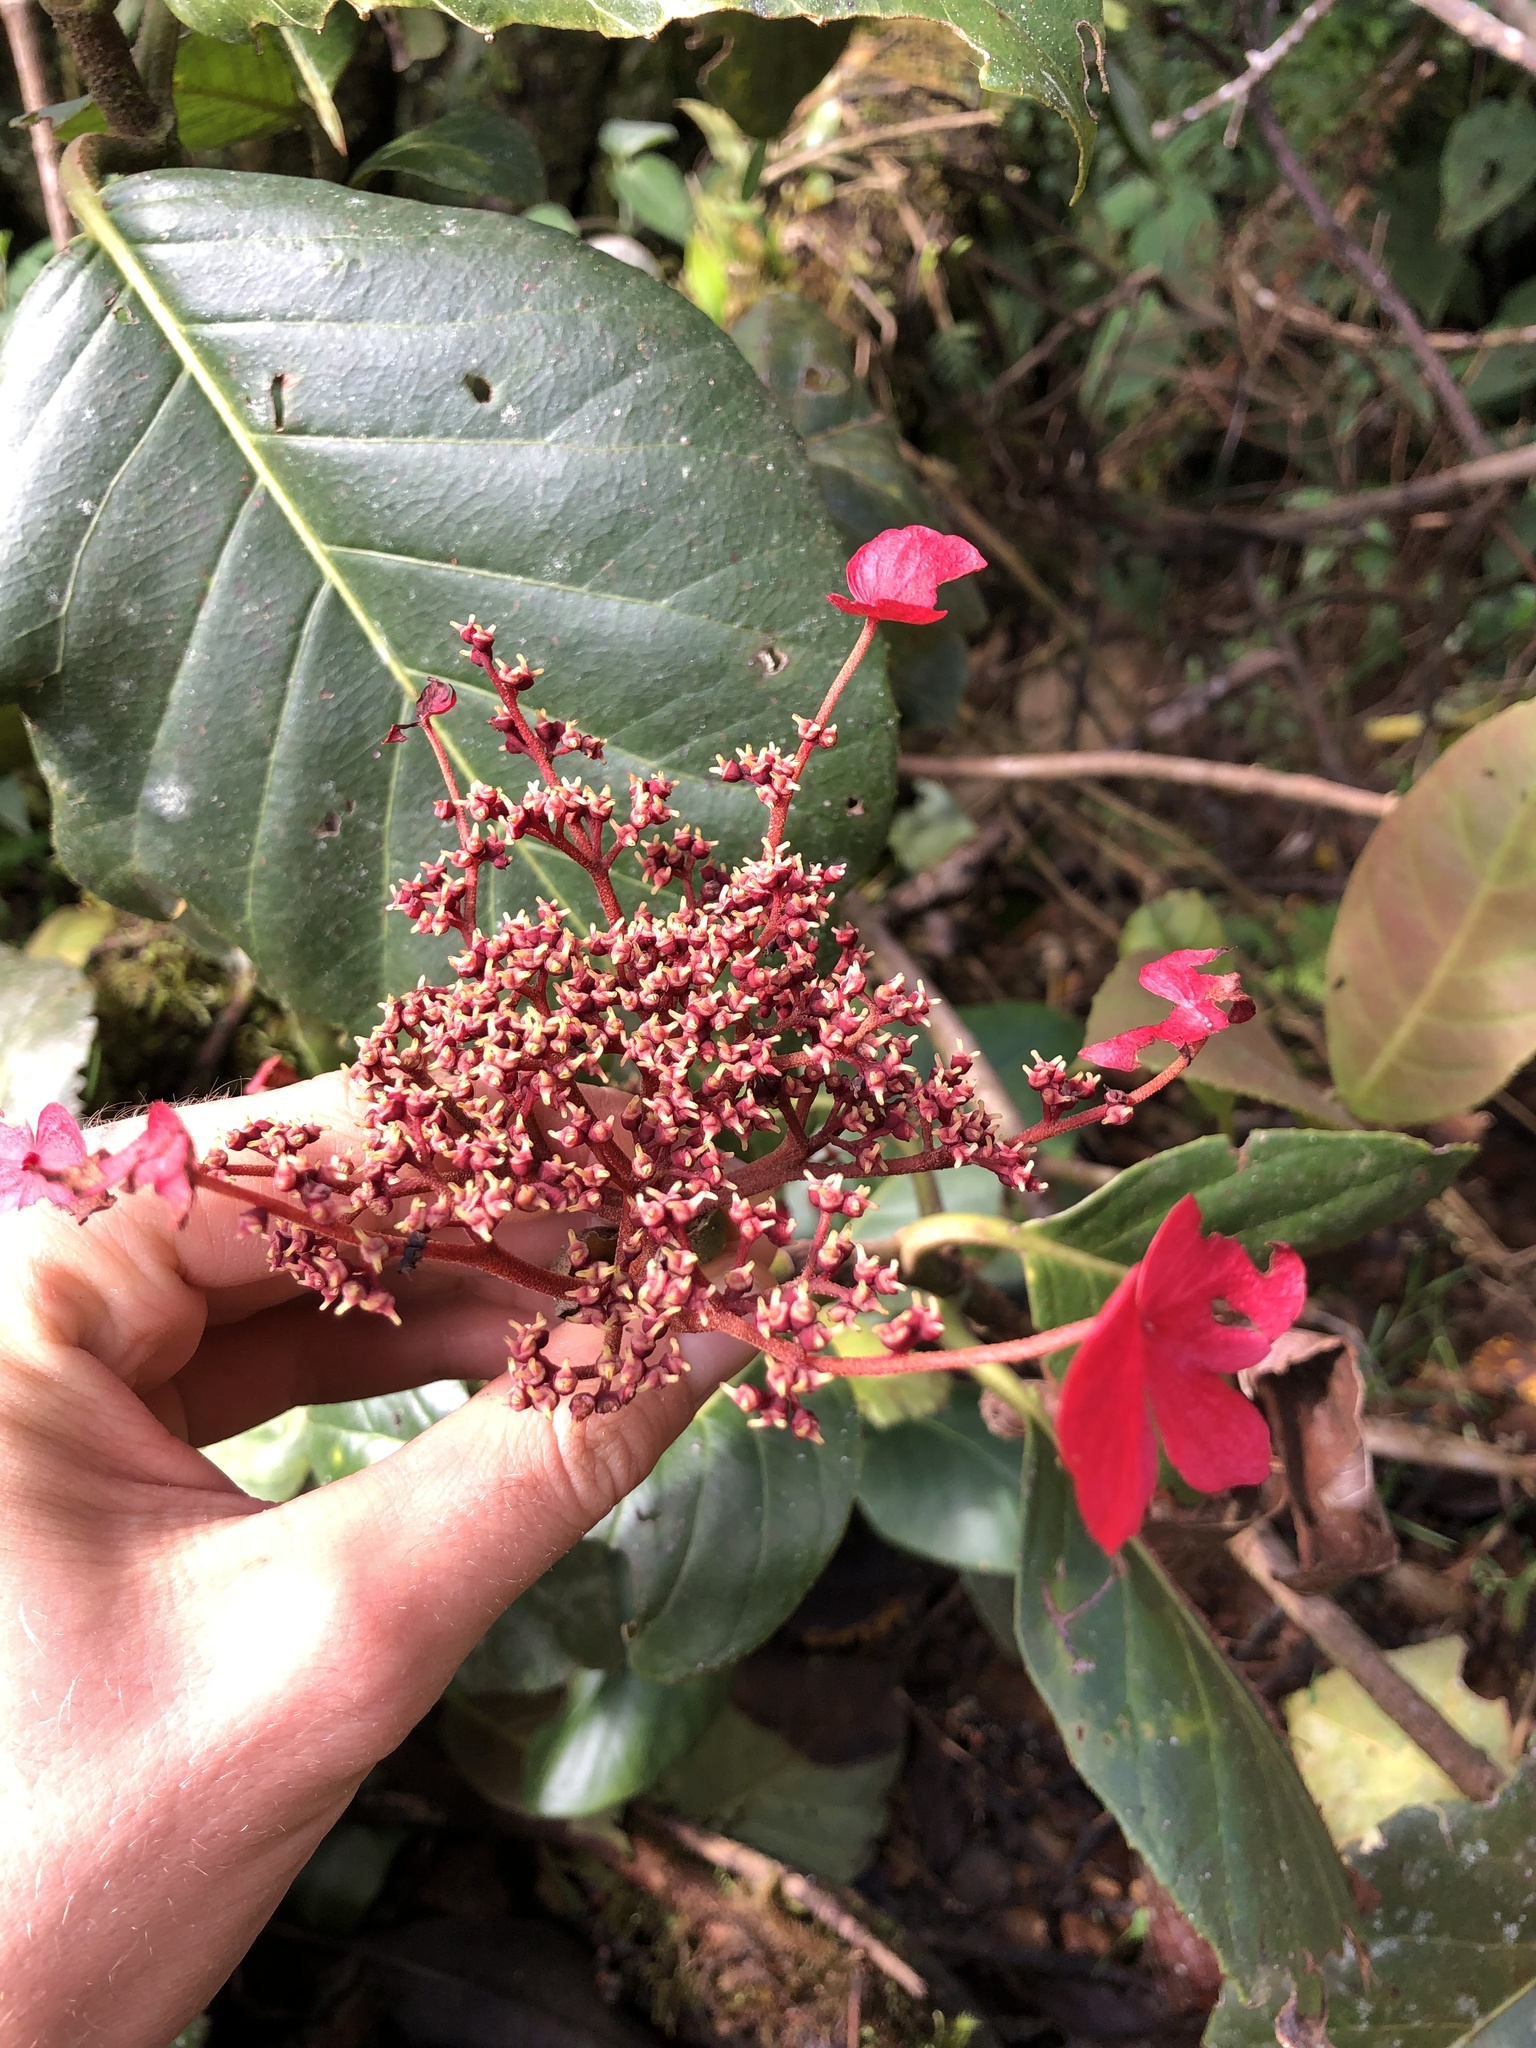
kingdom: Plantae
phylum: Tracheophyta
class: Magnoliopsida
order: Cornales
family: Hydrangeaceae
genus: Hydrangea
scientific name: Hydrangea peruviana
